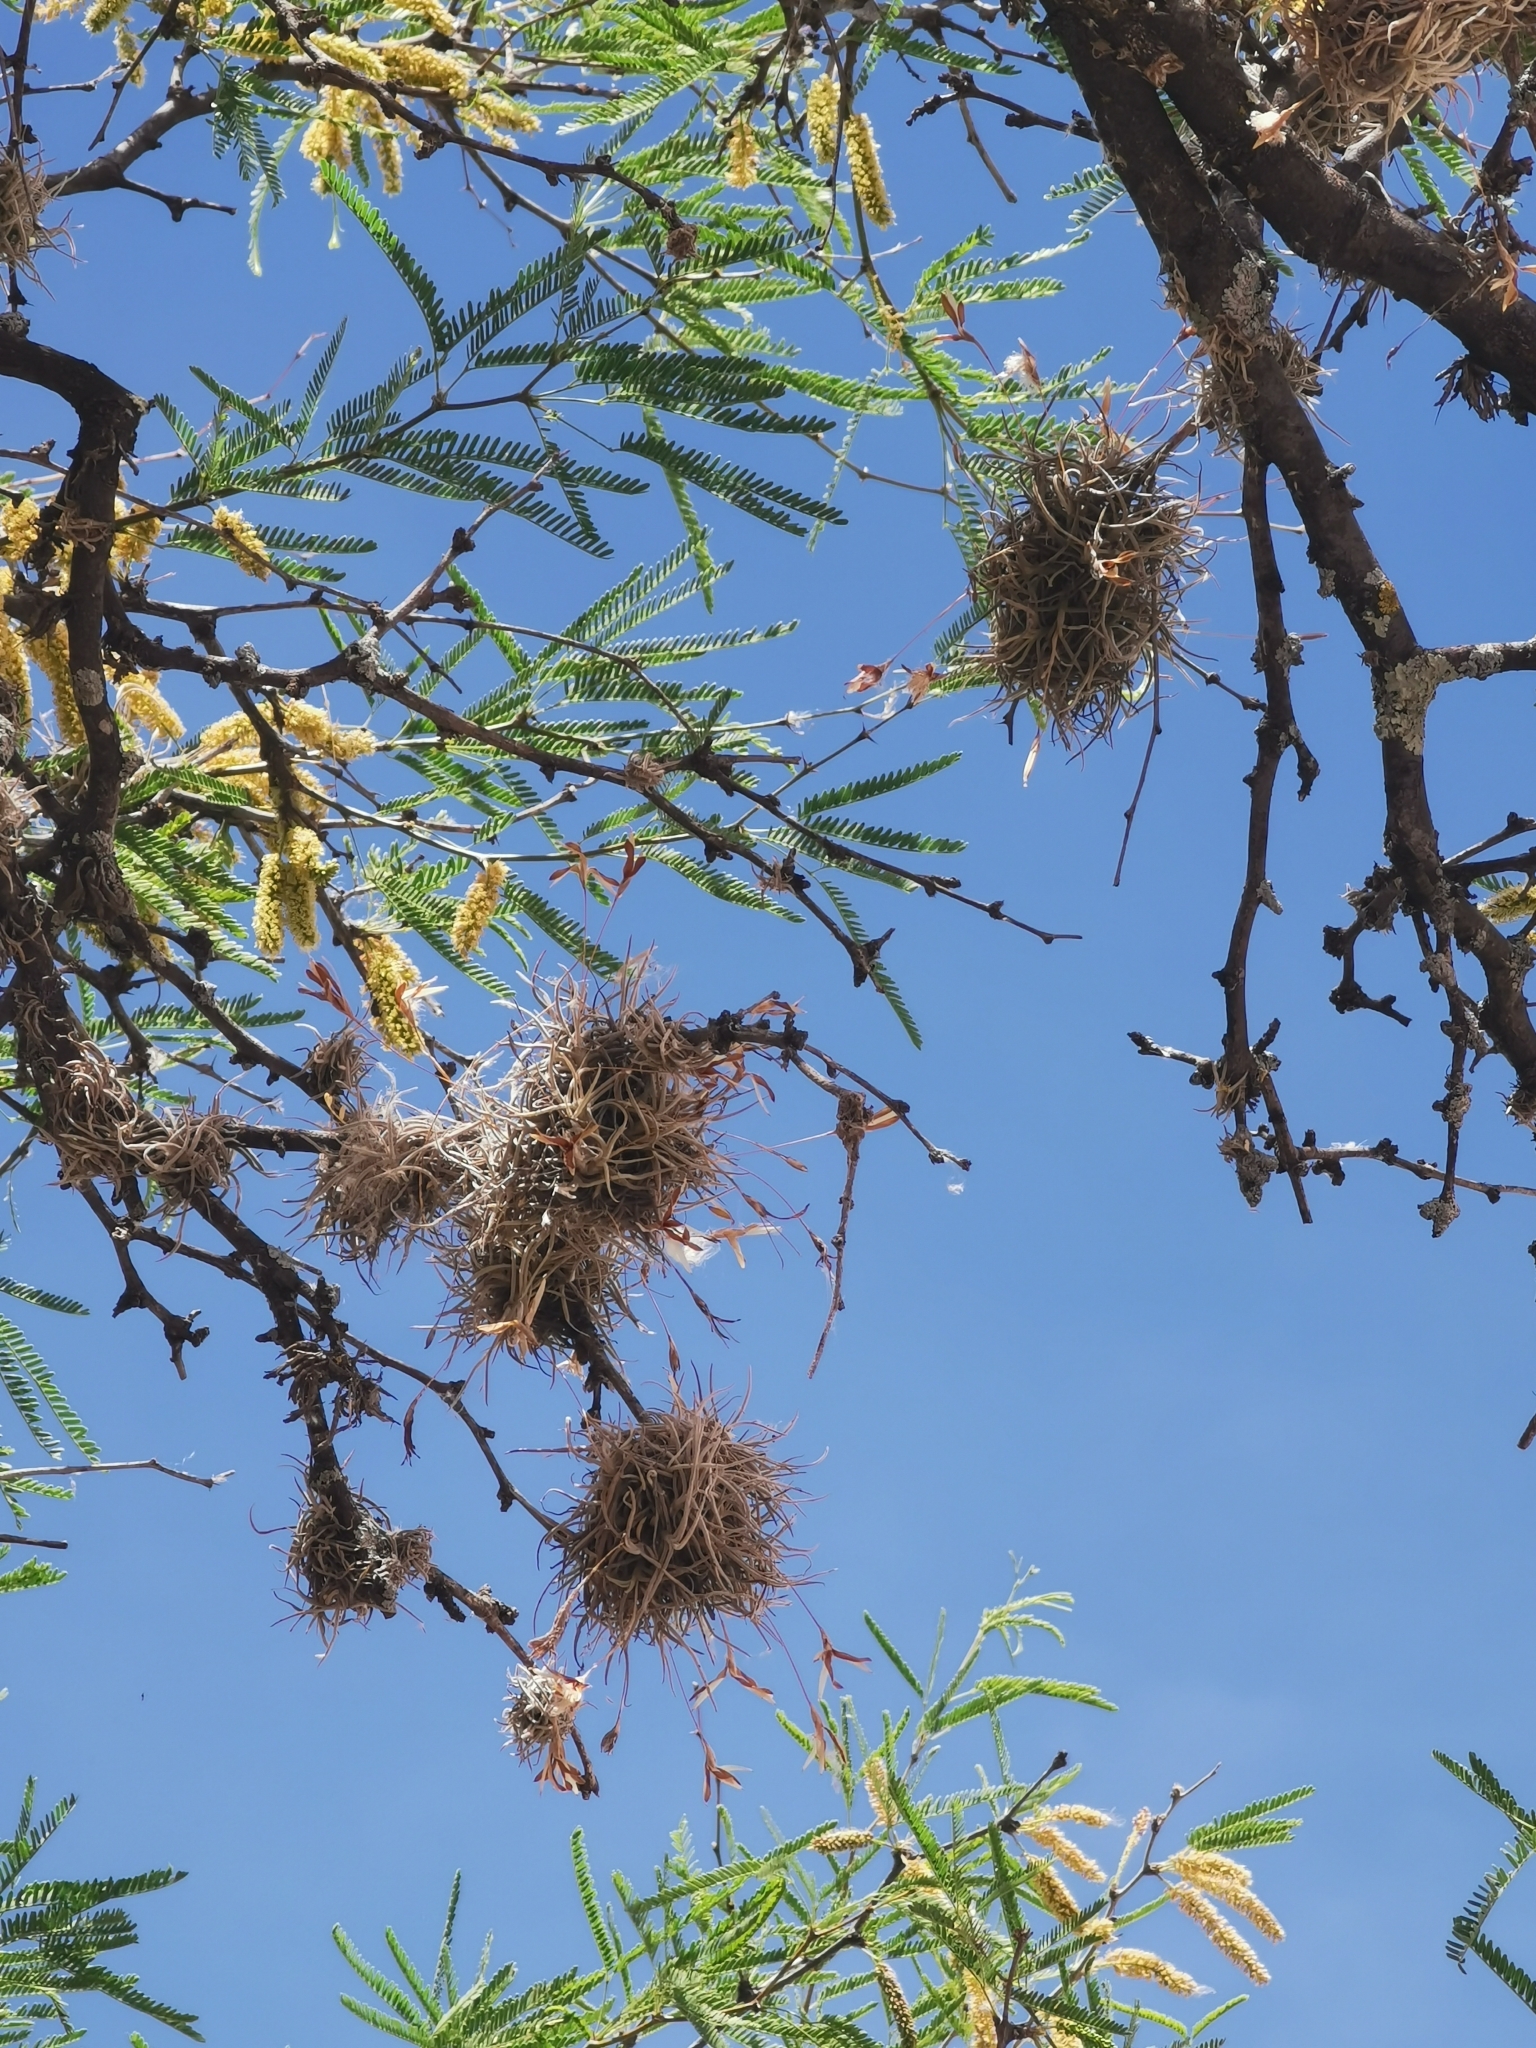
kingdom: Plantae
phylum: Tracheophyta
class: Liliopsida
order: Poales
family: Bromeliaceae
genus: Tillandsia
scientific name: Tillandsia recurvata
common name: Small ballmoss
